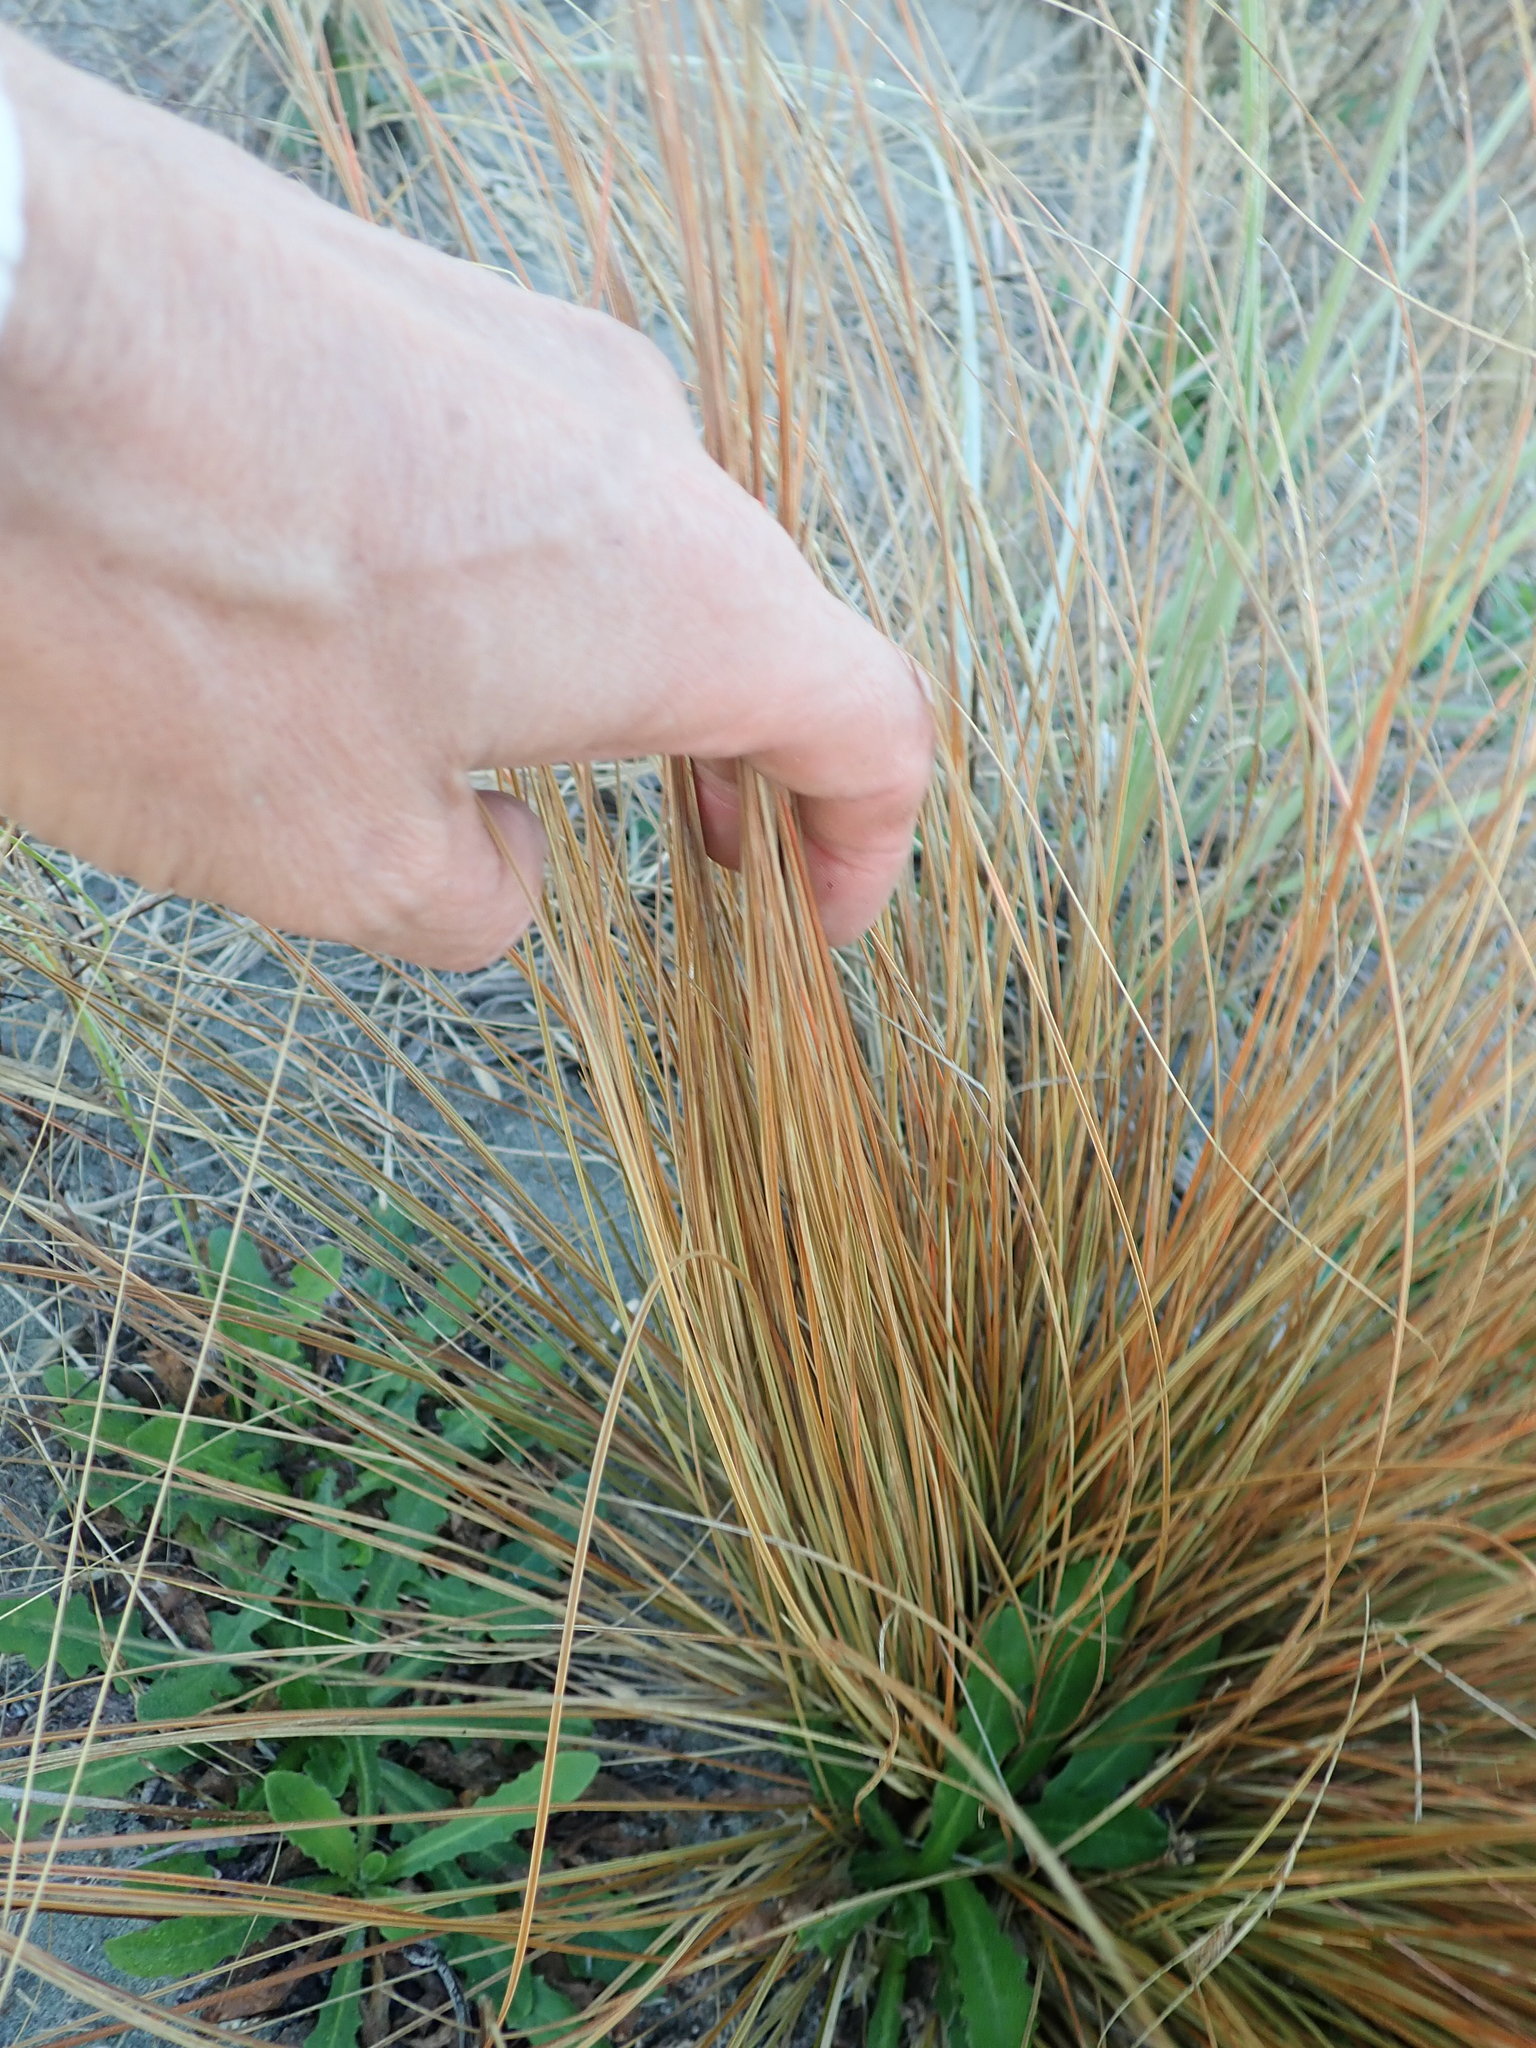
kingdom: Plantae
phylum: Tracheophyta
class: Liliopsida
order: Poales
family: Cyperaceae
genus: Carex
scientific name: Carex testacea
